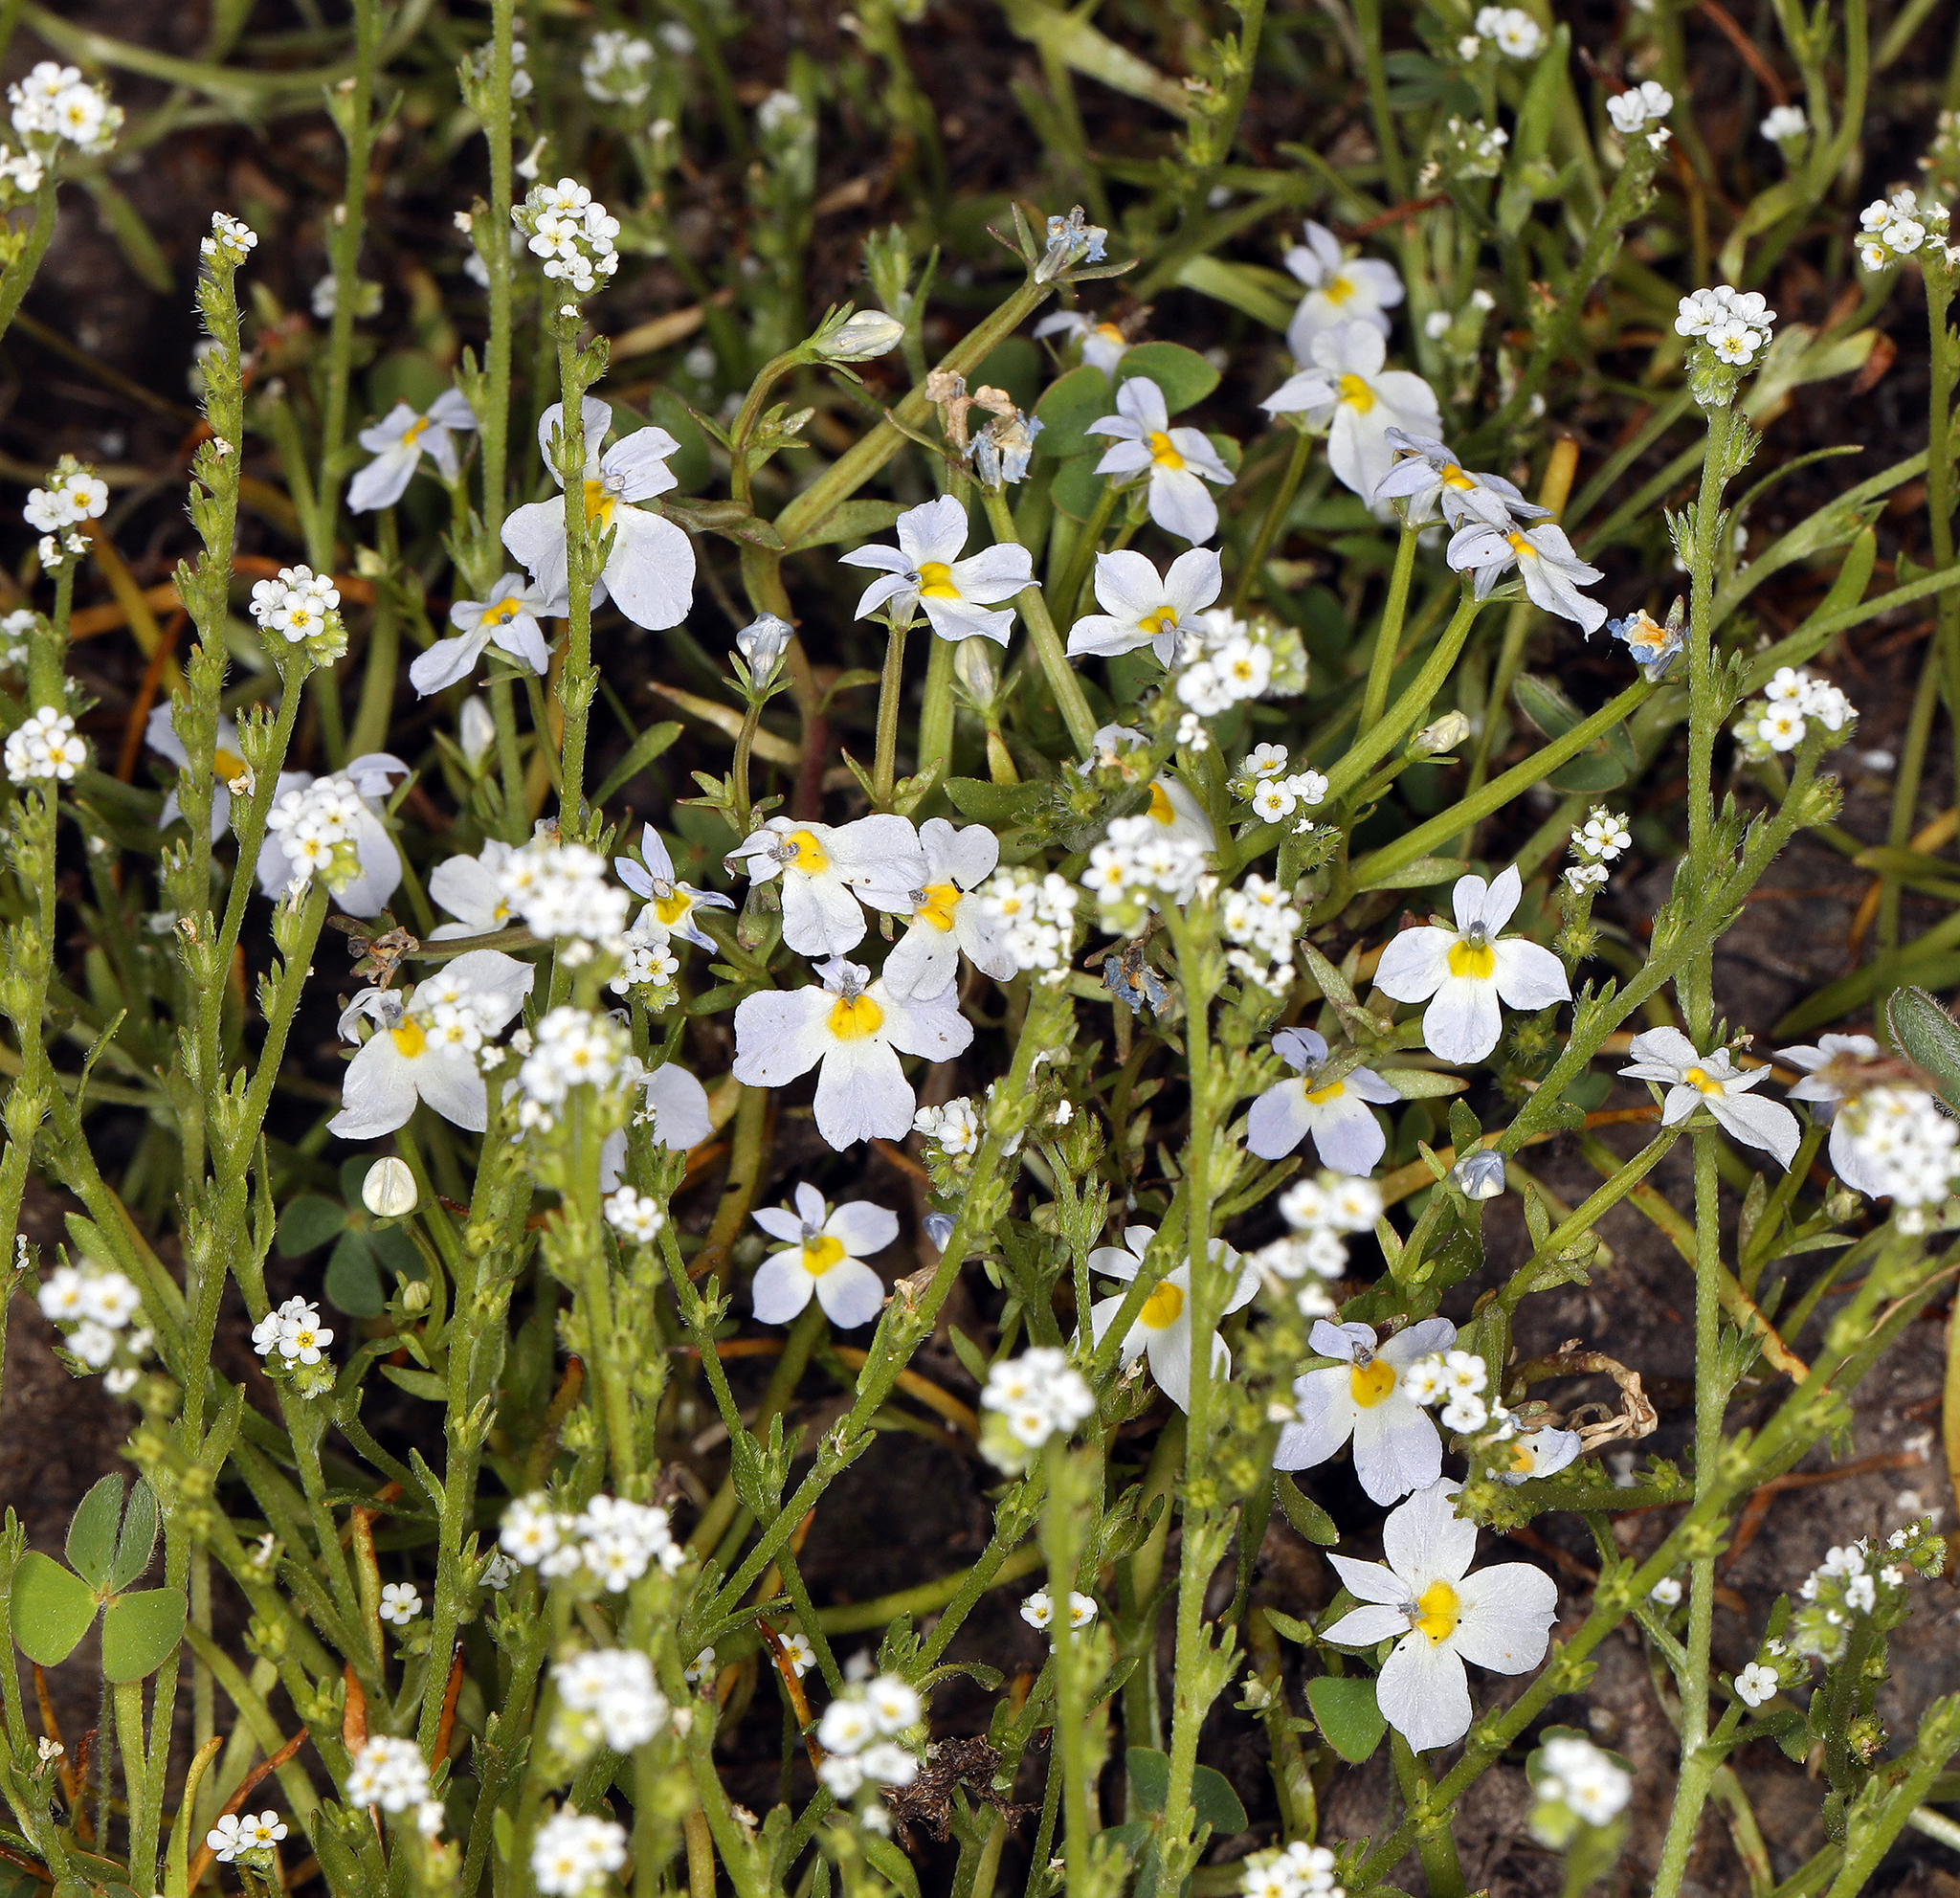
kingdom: Plantae
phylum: Tracheophyta
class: Magnoliopsida
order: Asterales
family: Campanulaceae
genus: Downingia
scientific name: Downingia cuspidata
